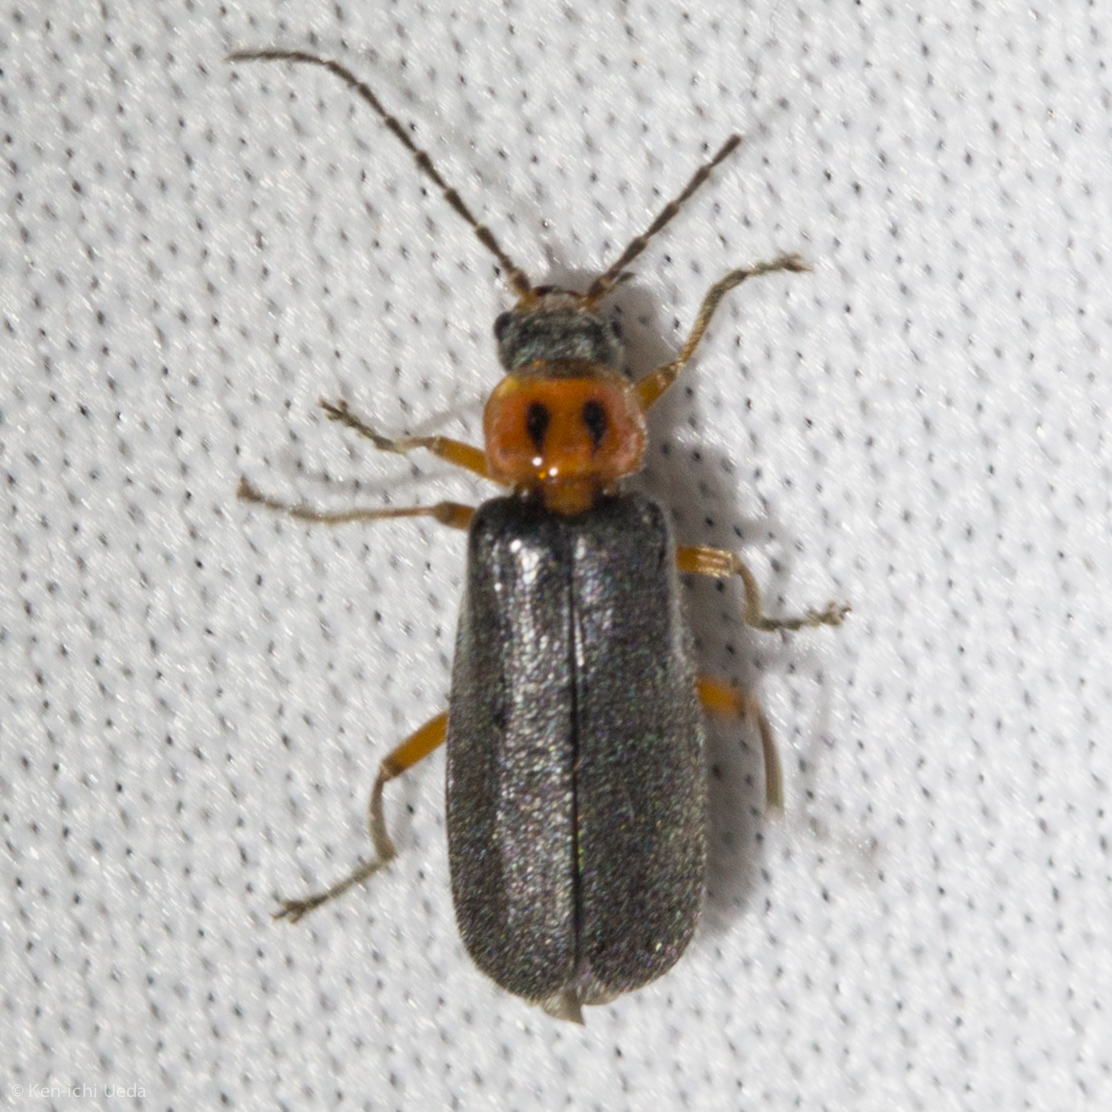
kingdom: Animalia
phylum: Arthropoda
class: Insecta
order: Coleoptera
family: Cantharidae
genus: Polemius
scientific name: Polemius binotatus
